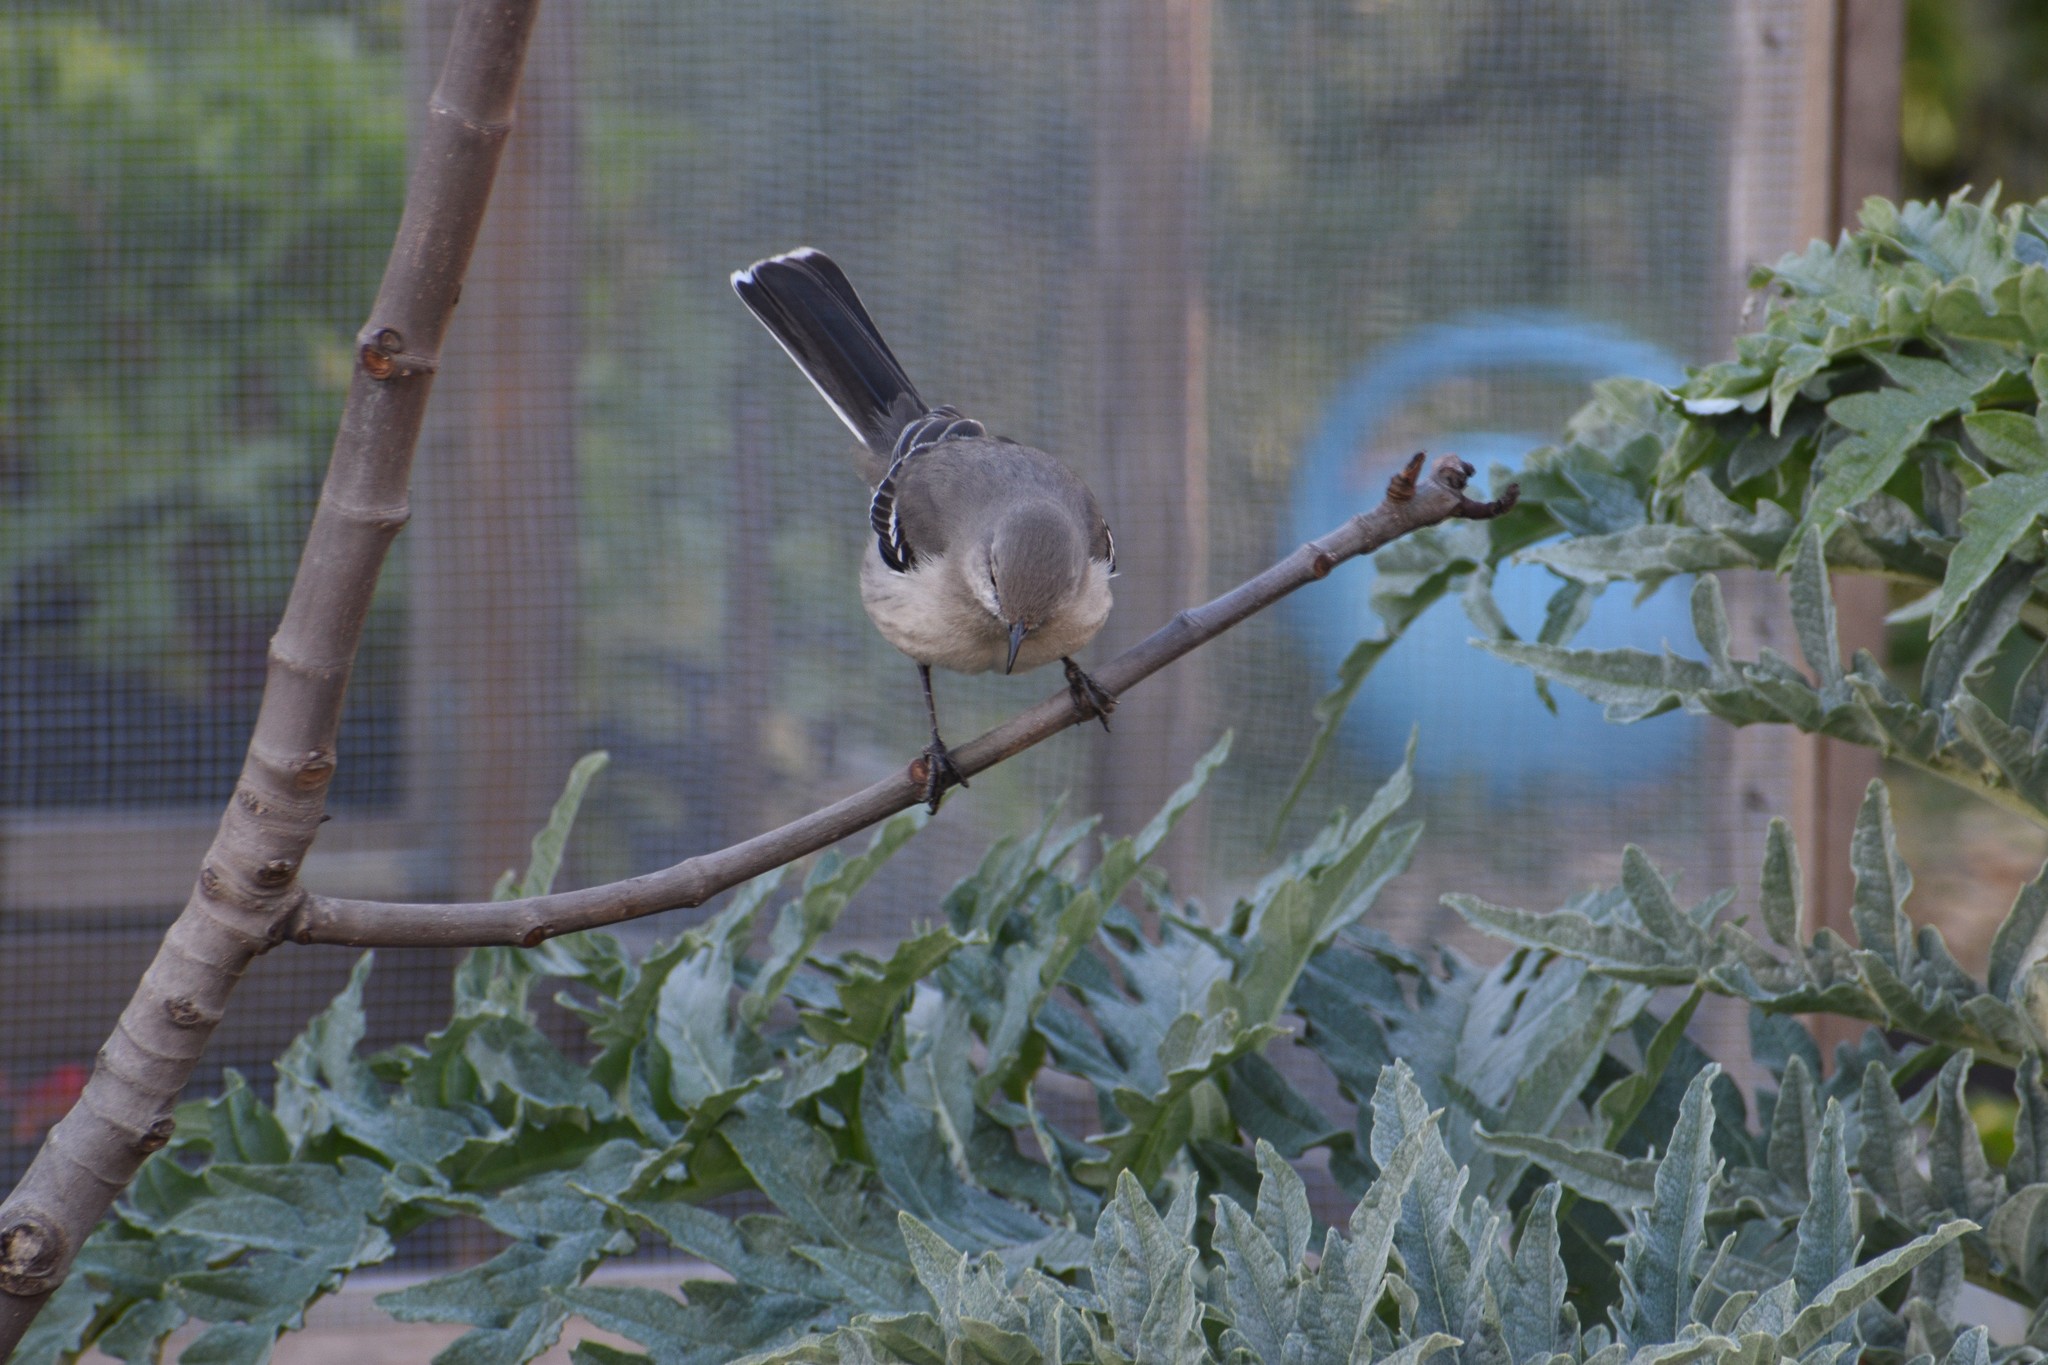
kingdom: Animalia
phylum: Chordata
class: Aves
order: Passeriformes
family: Mimidae
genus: Mimus
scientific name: Mimus polyglottos
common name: Northern mockingbird
